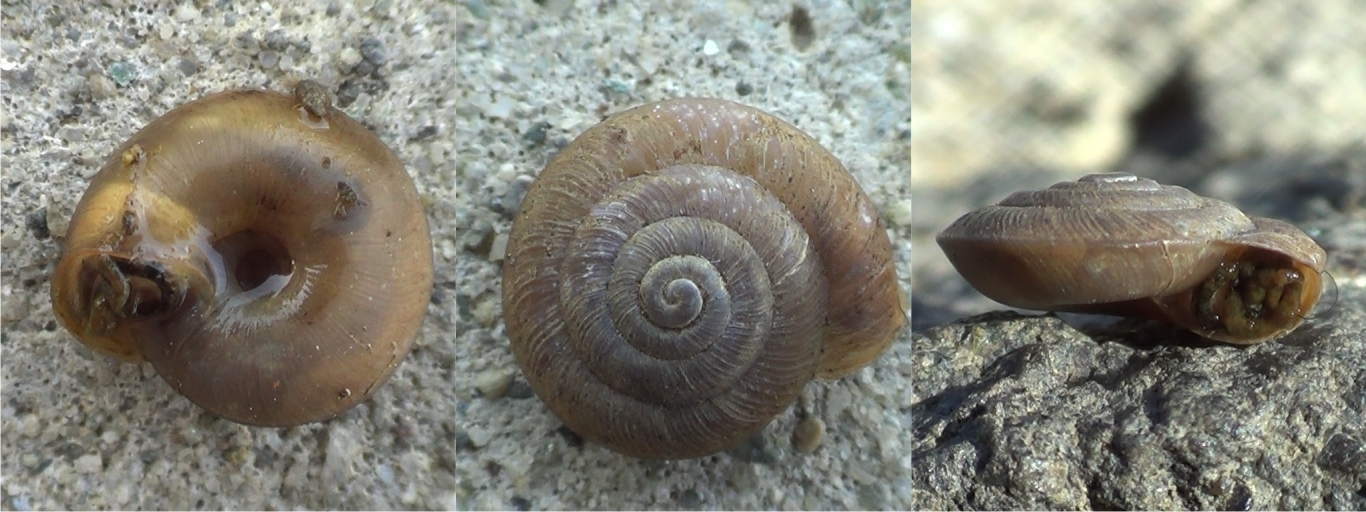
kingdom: Animalia
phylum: Mollusca
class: Gastropoda
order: Stylommatophora
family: Trissexodontidae
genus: Caracollina
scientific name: Caracollina lenticula
